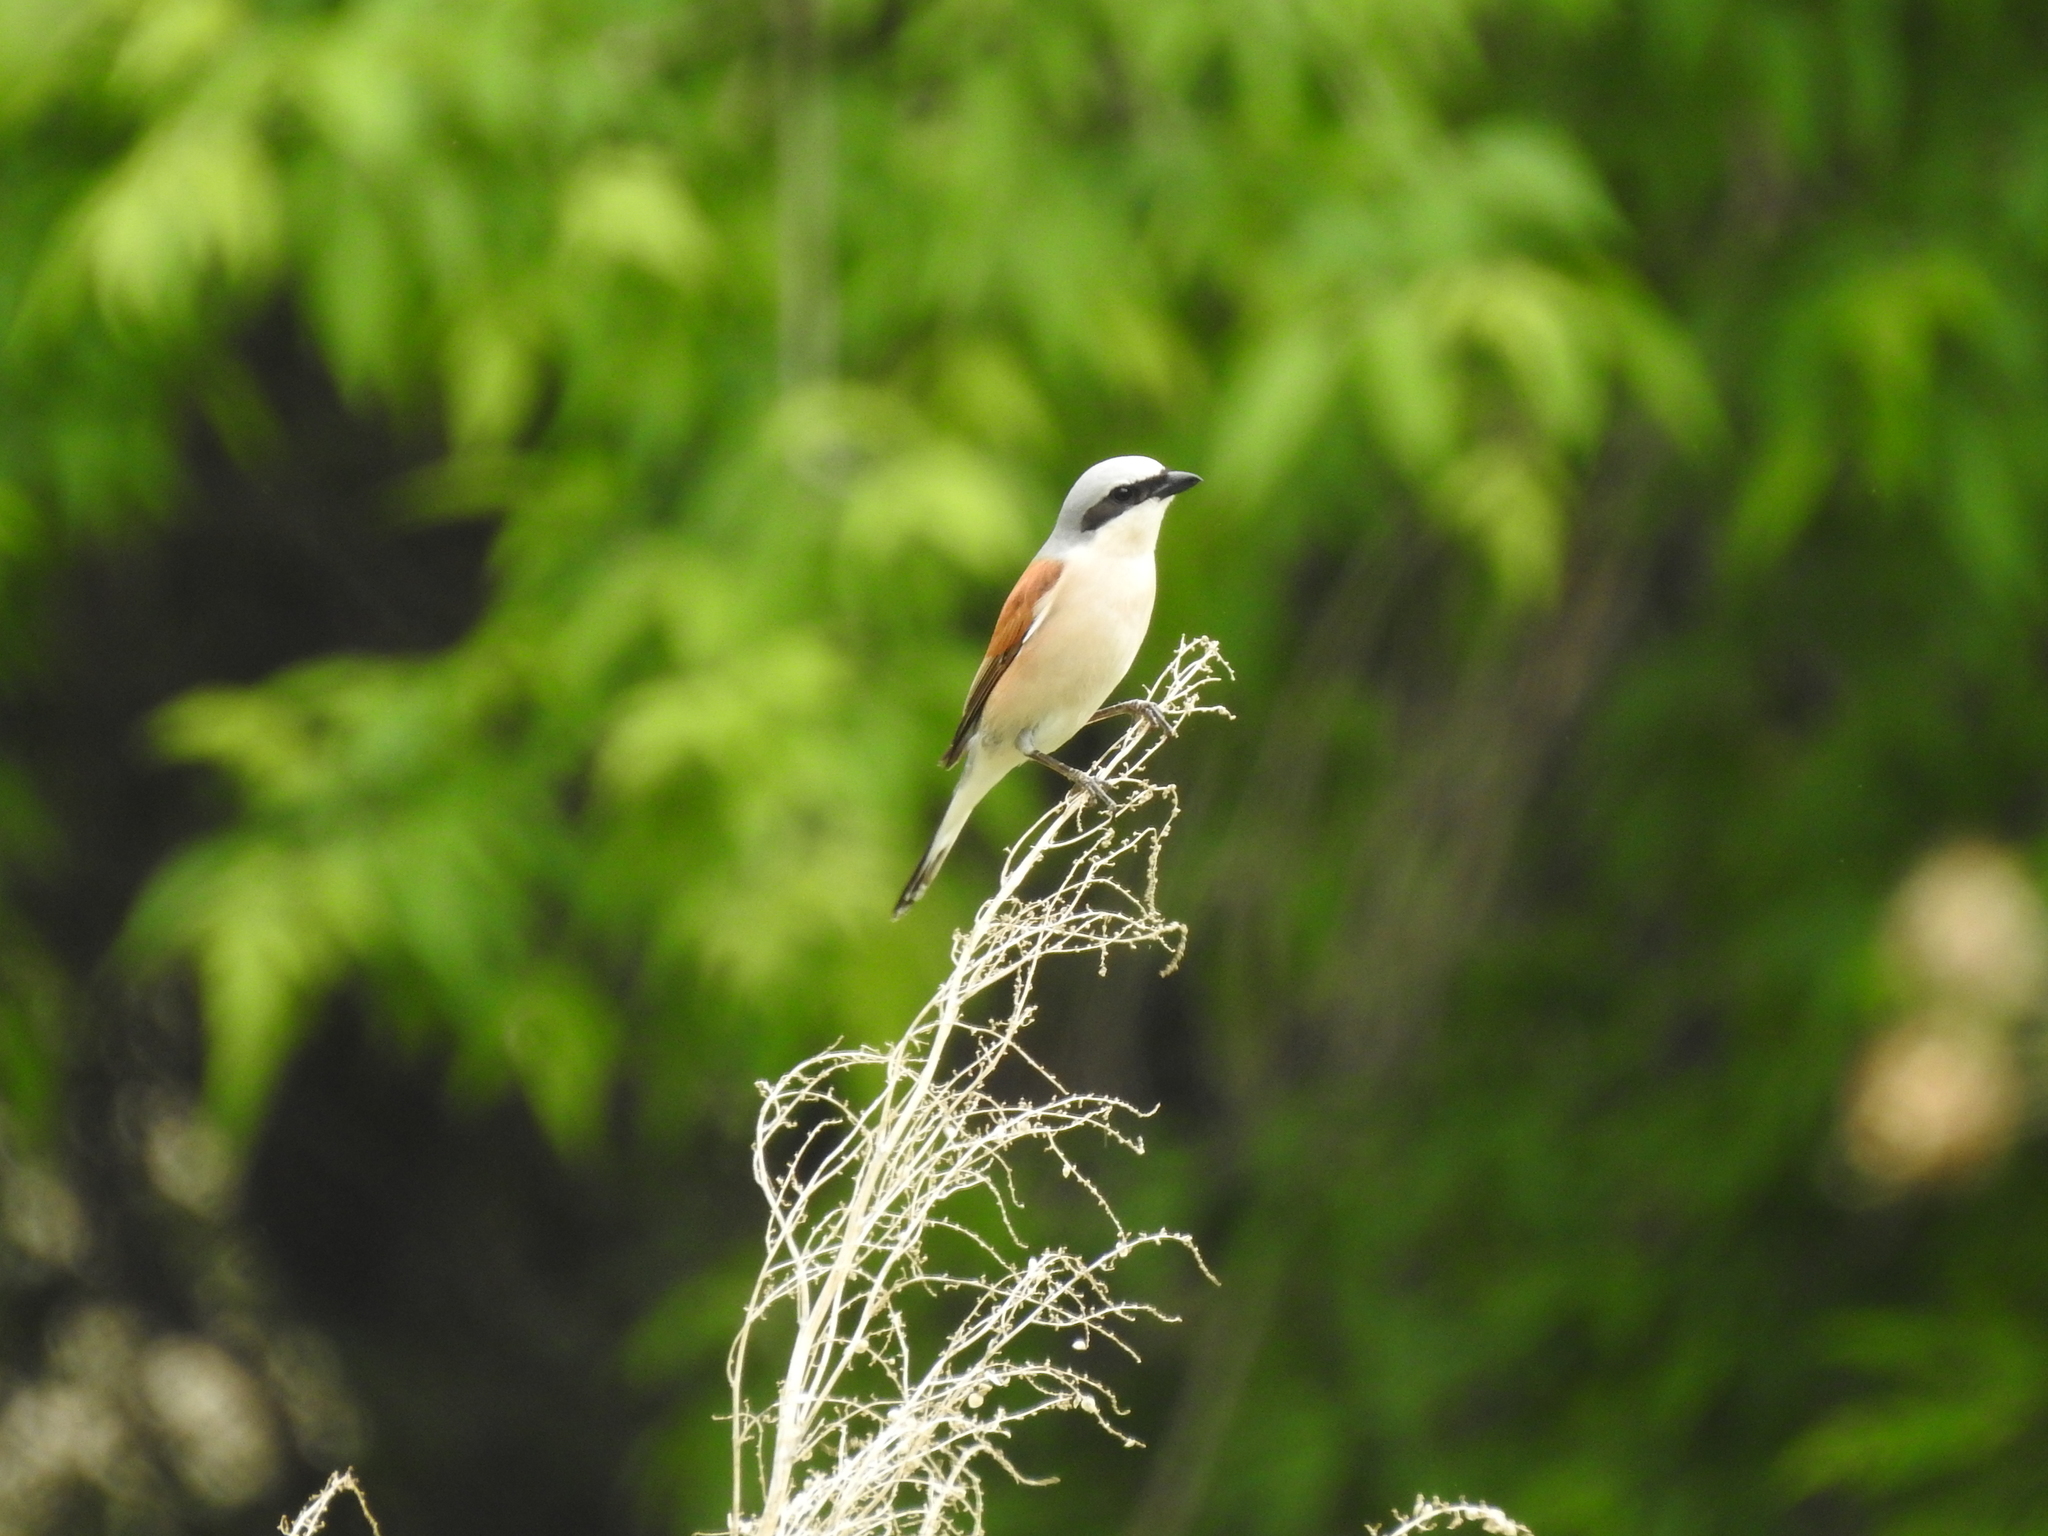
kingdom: Animalia
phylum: Chordata
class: Aves
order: Passeriformes
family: Laniidae
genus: Lanius
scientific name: Lanius collurio
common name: Red-backed shrike
